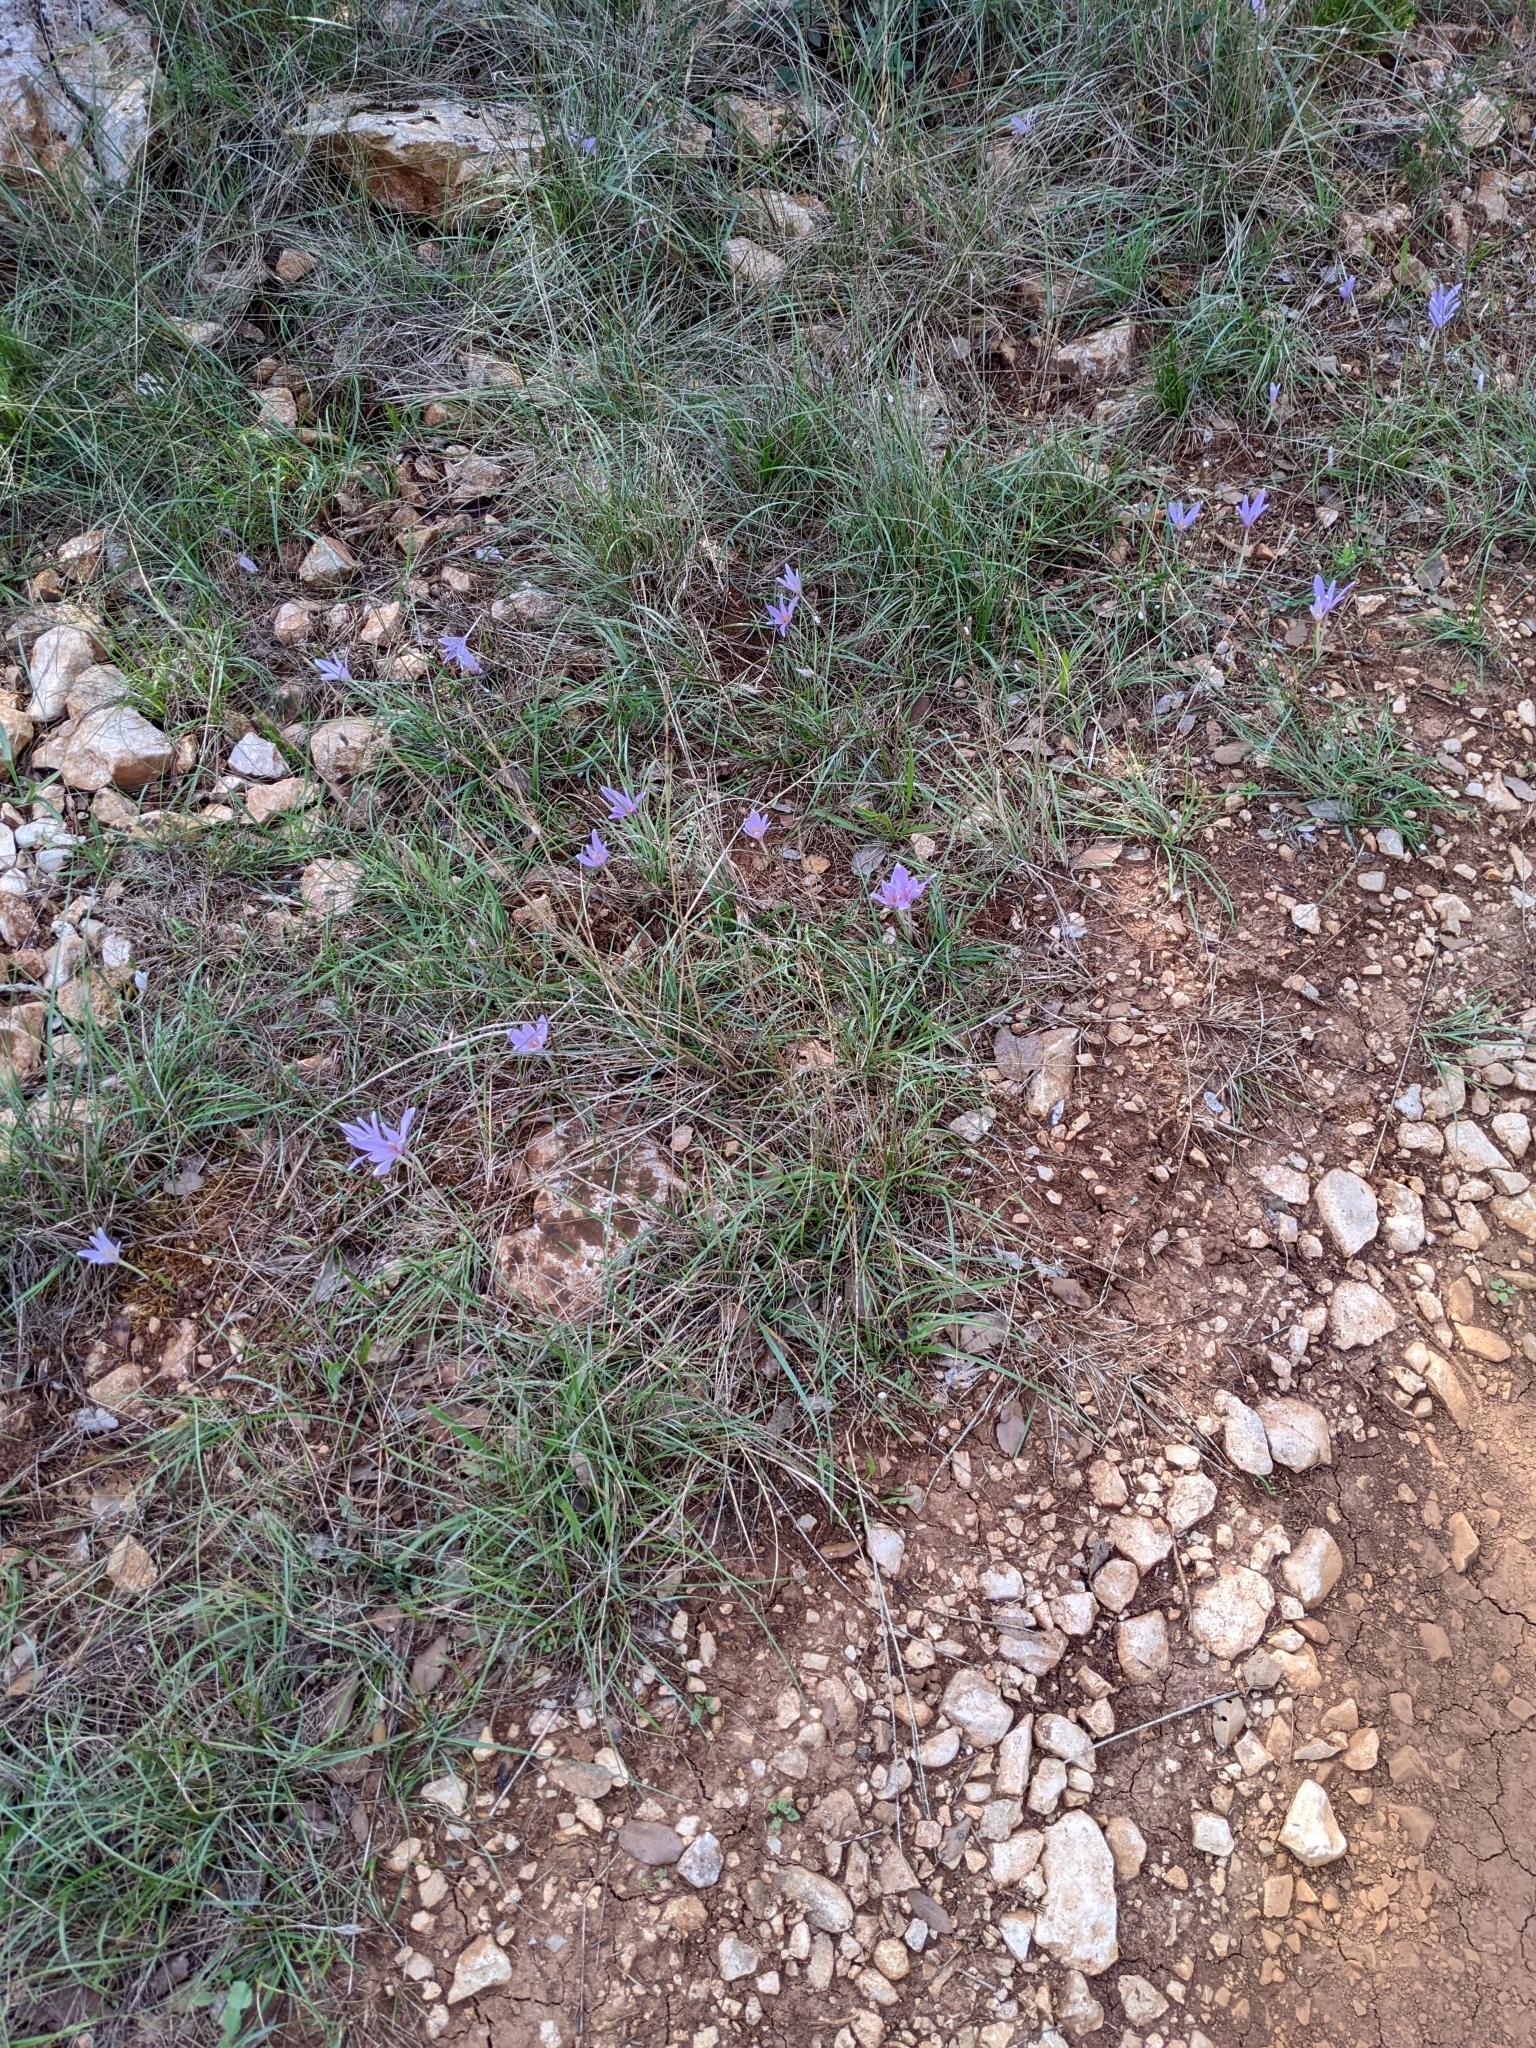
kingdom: Plantae
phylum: Tracheophyta
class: Liliopsida
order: Liliales
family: Colchicaceae
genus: Colchicum
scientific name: Colchicum longifolium
